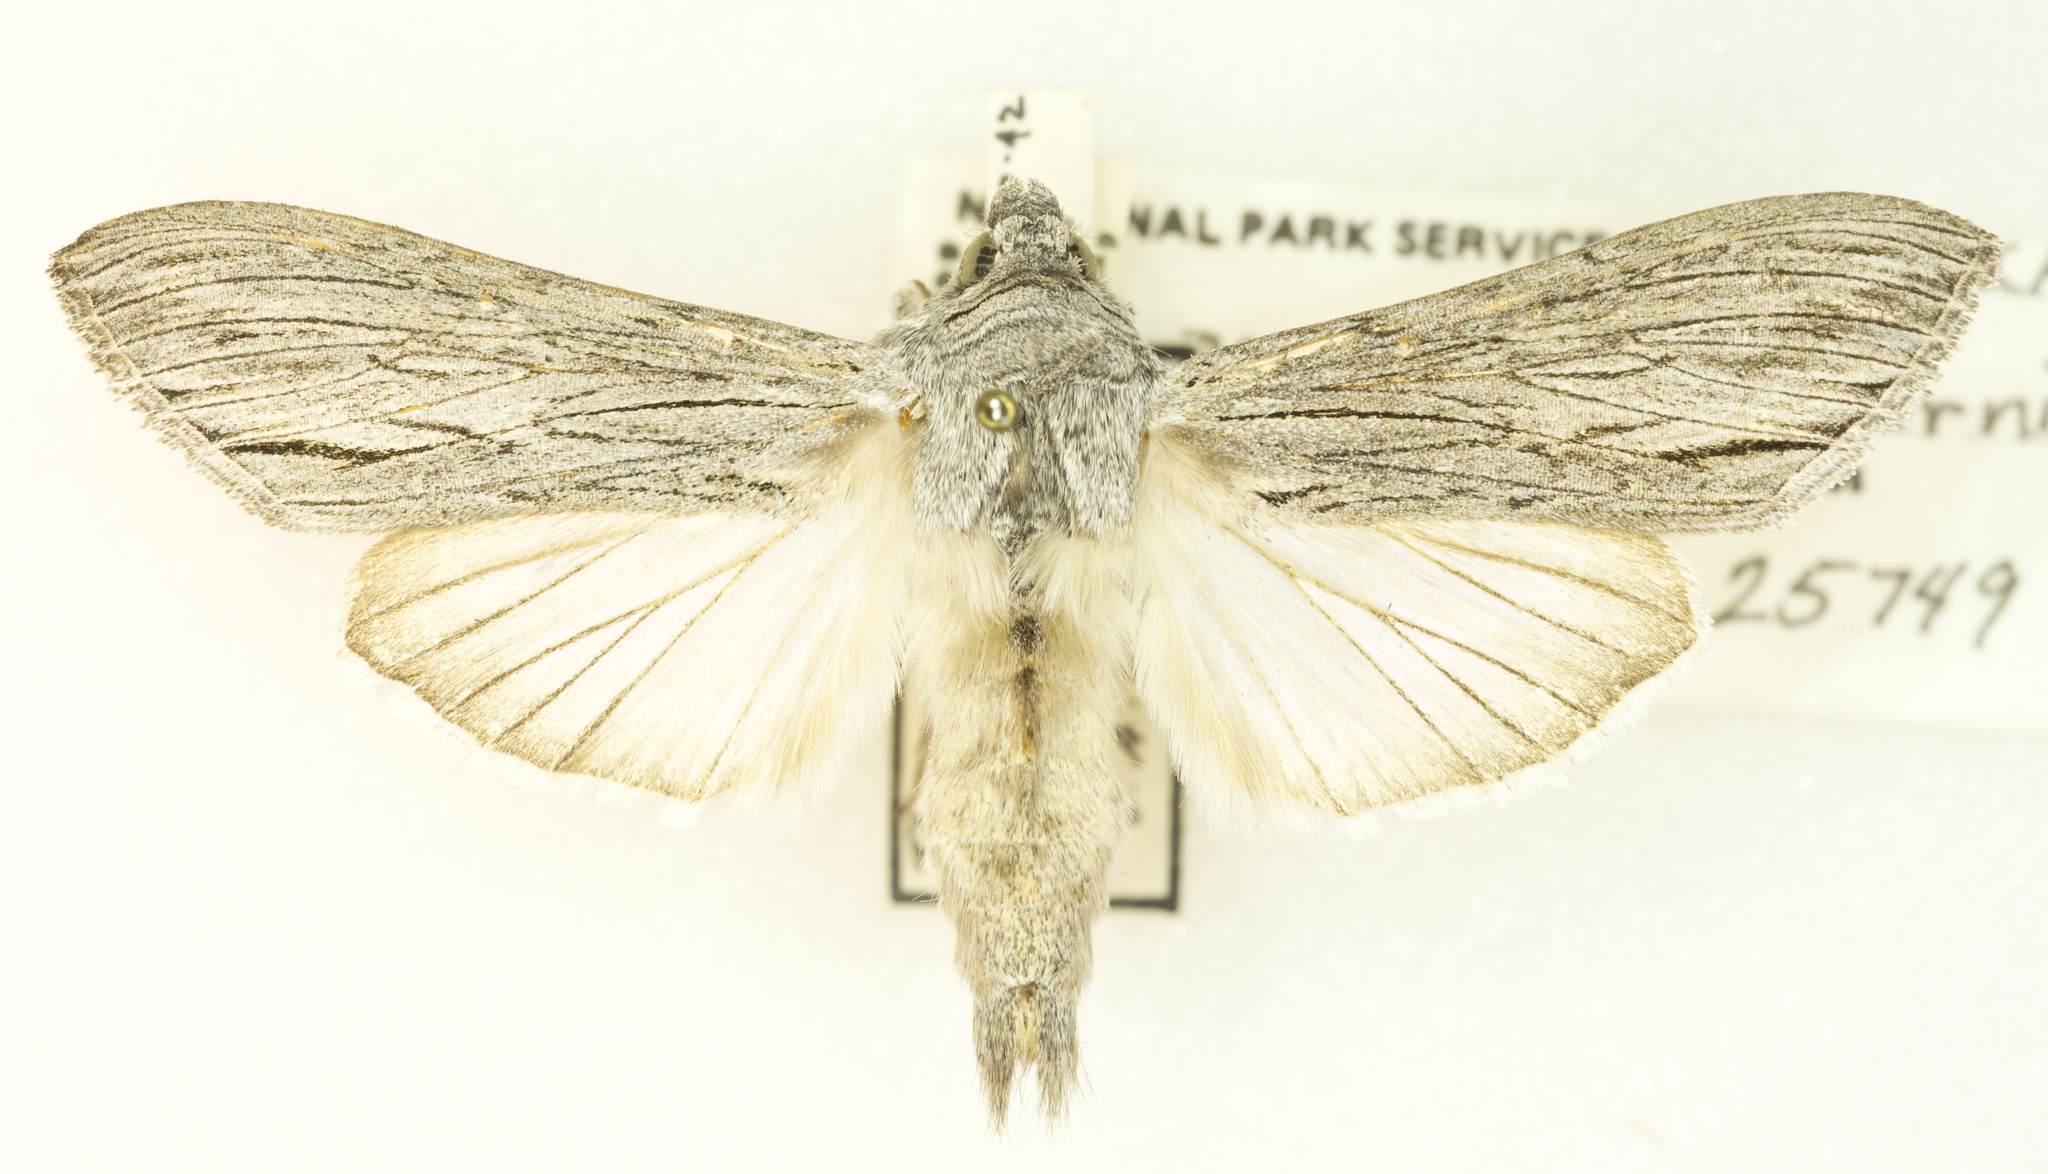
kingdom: Animalia
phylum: Arthropoda
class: Insecta
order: Lepidoptera
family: Noctuidae
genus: Cucullia
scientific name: Cucullia serraticornis
